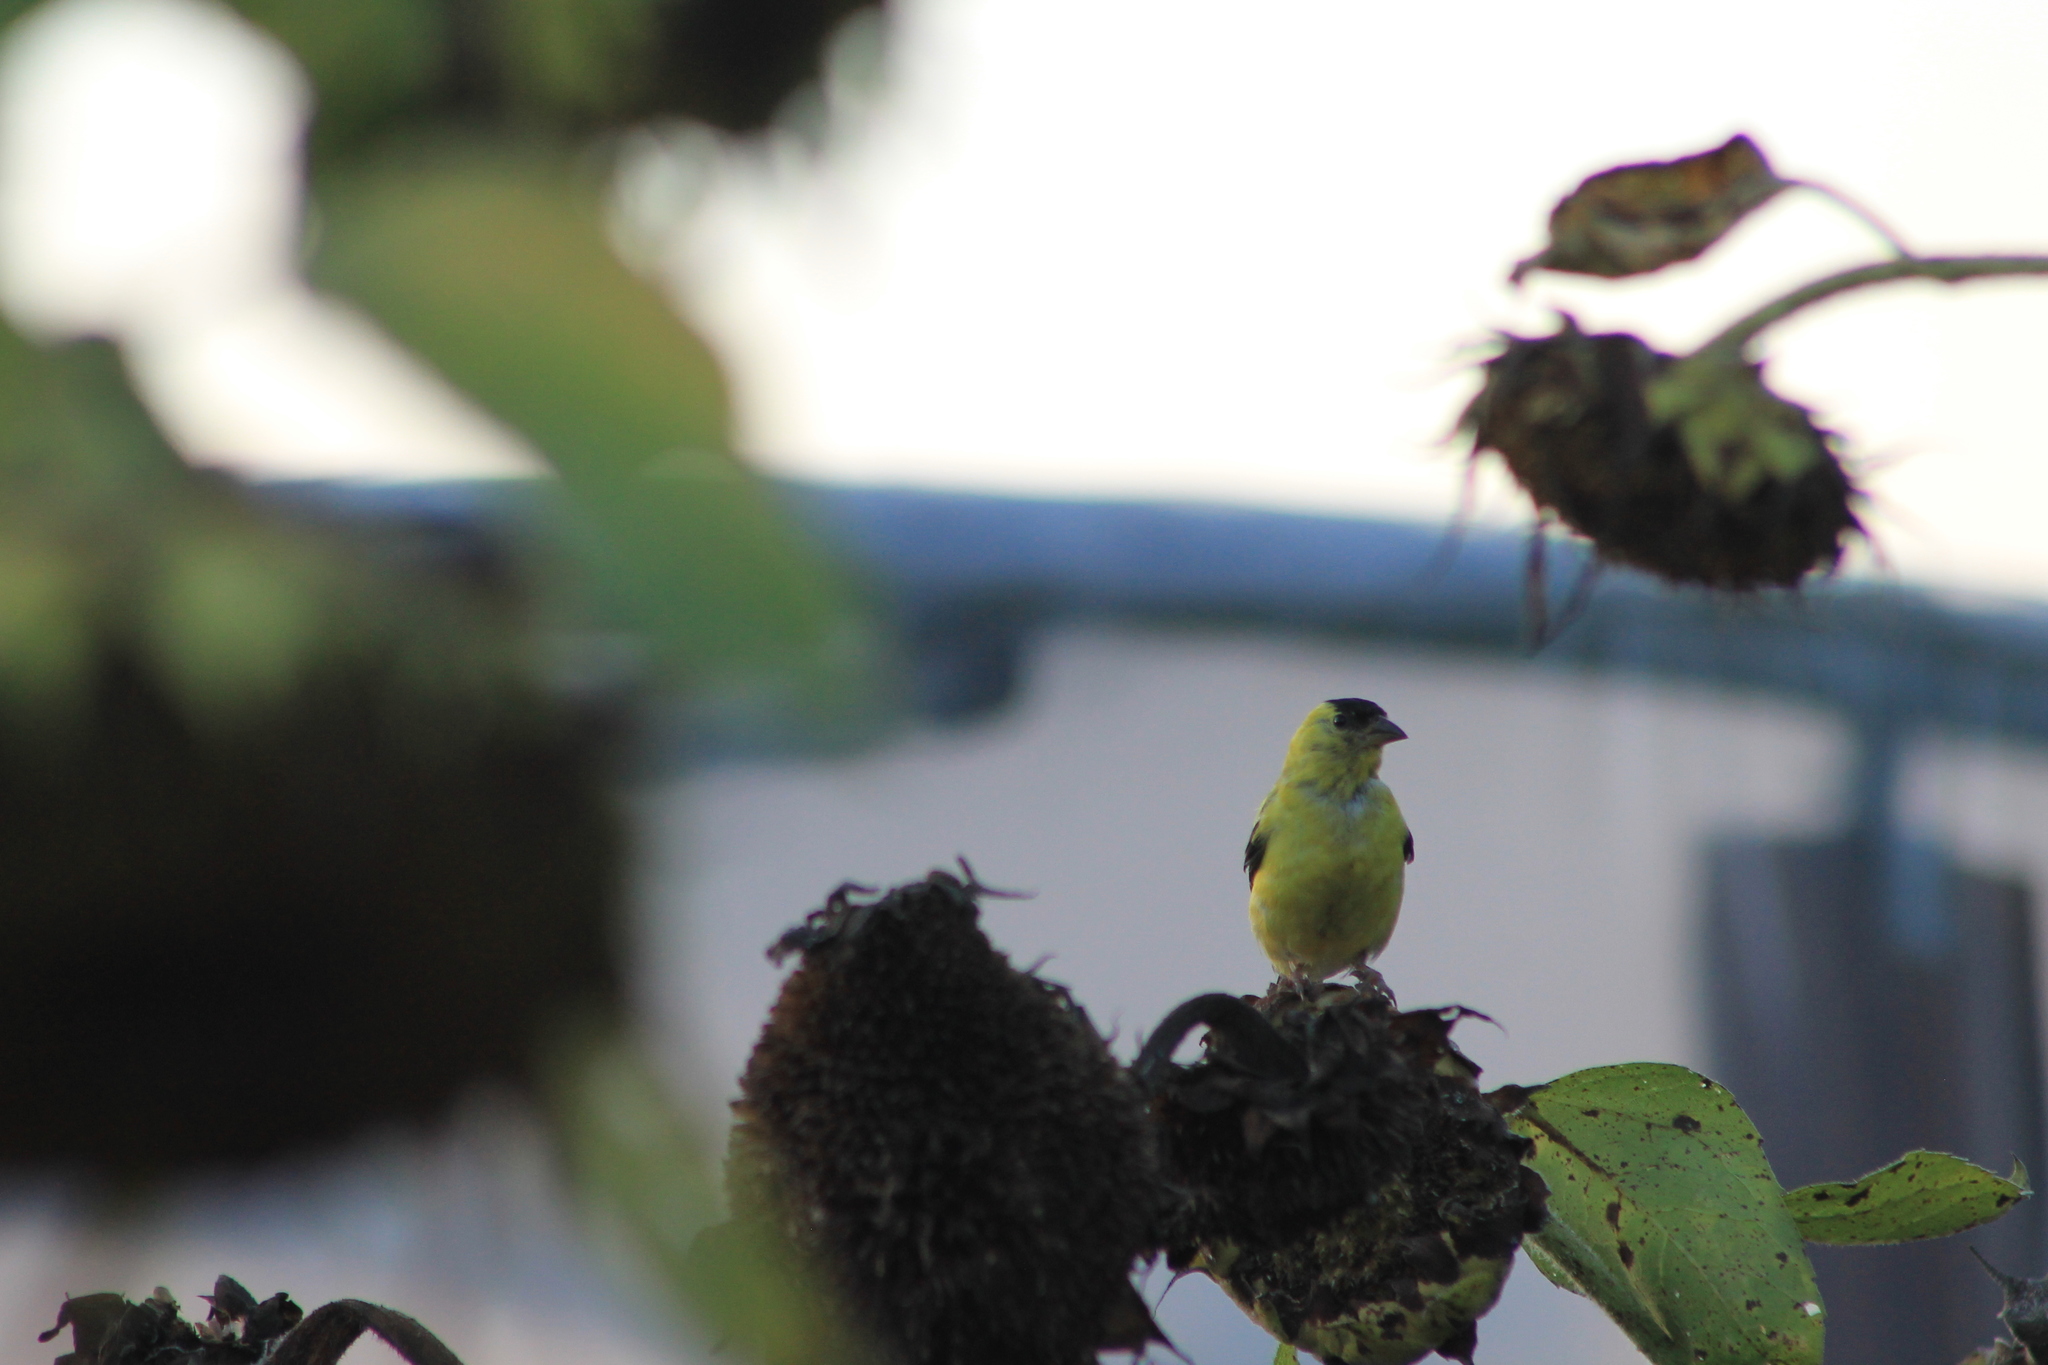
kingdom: Animalia
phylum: Chordata
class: Aves
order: Passeriformes
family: Fringillidae
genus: Spinus
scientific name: Spinus tristis
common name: American goldfinch
